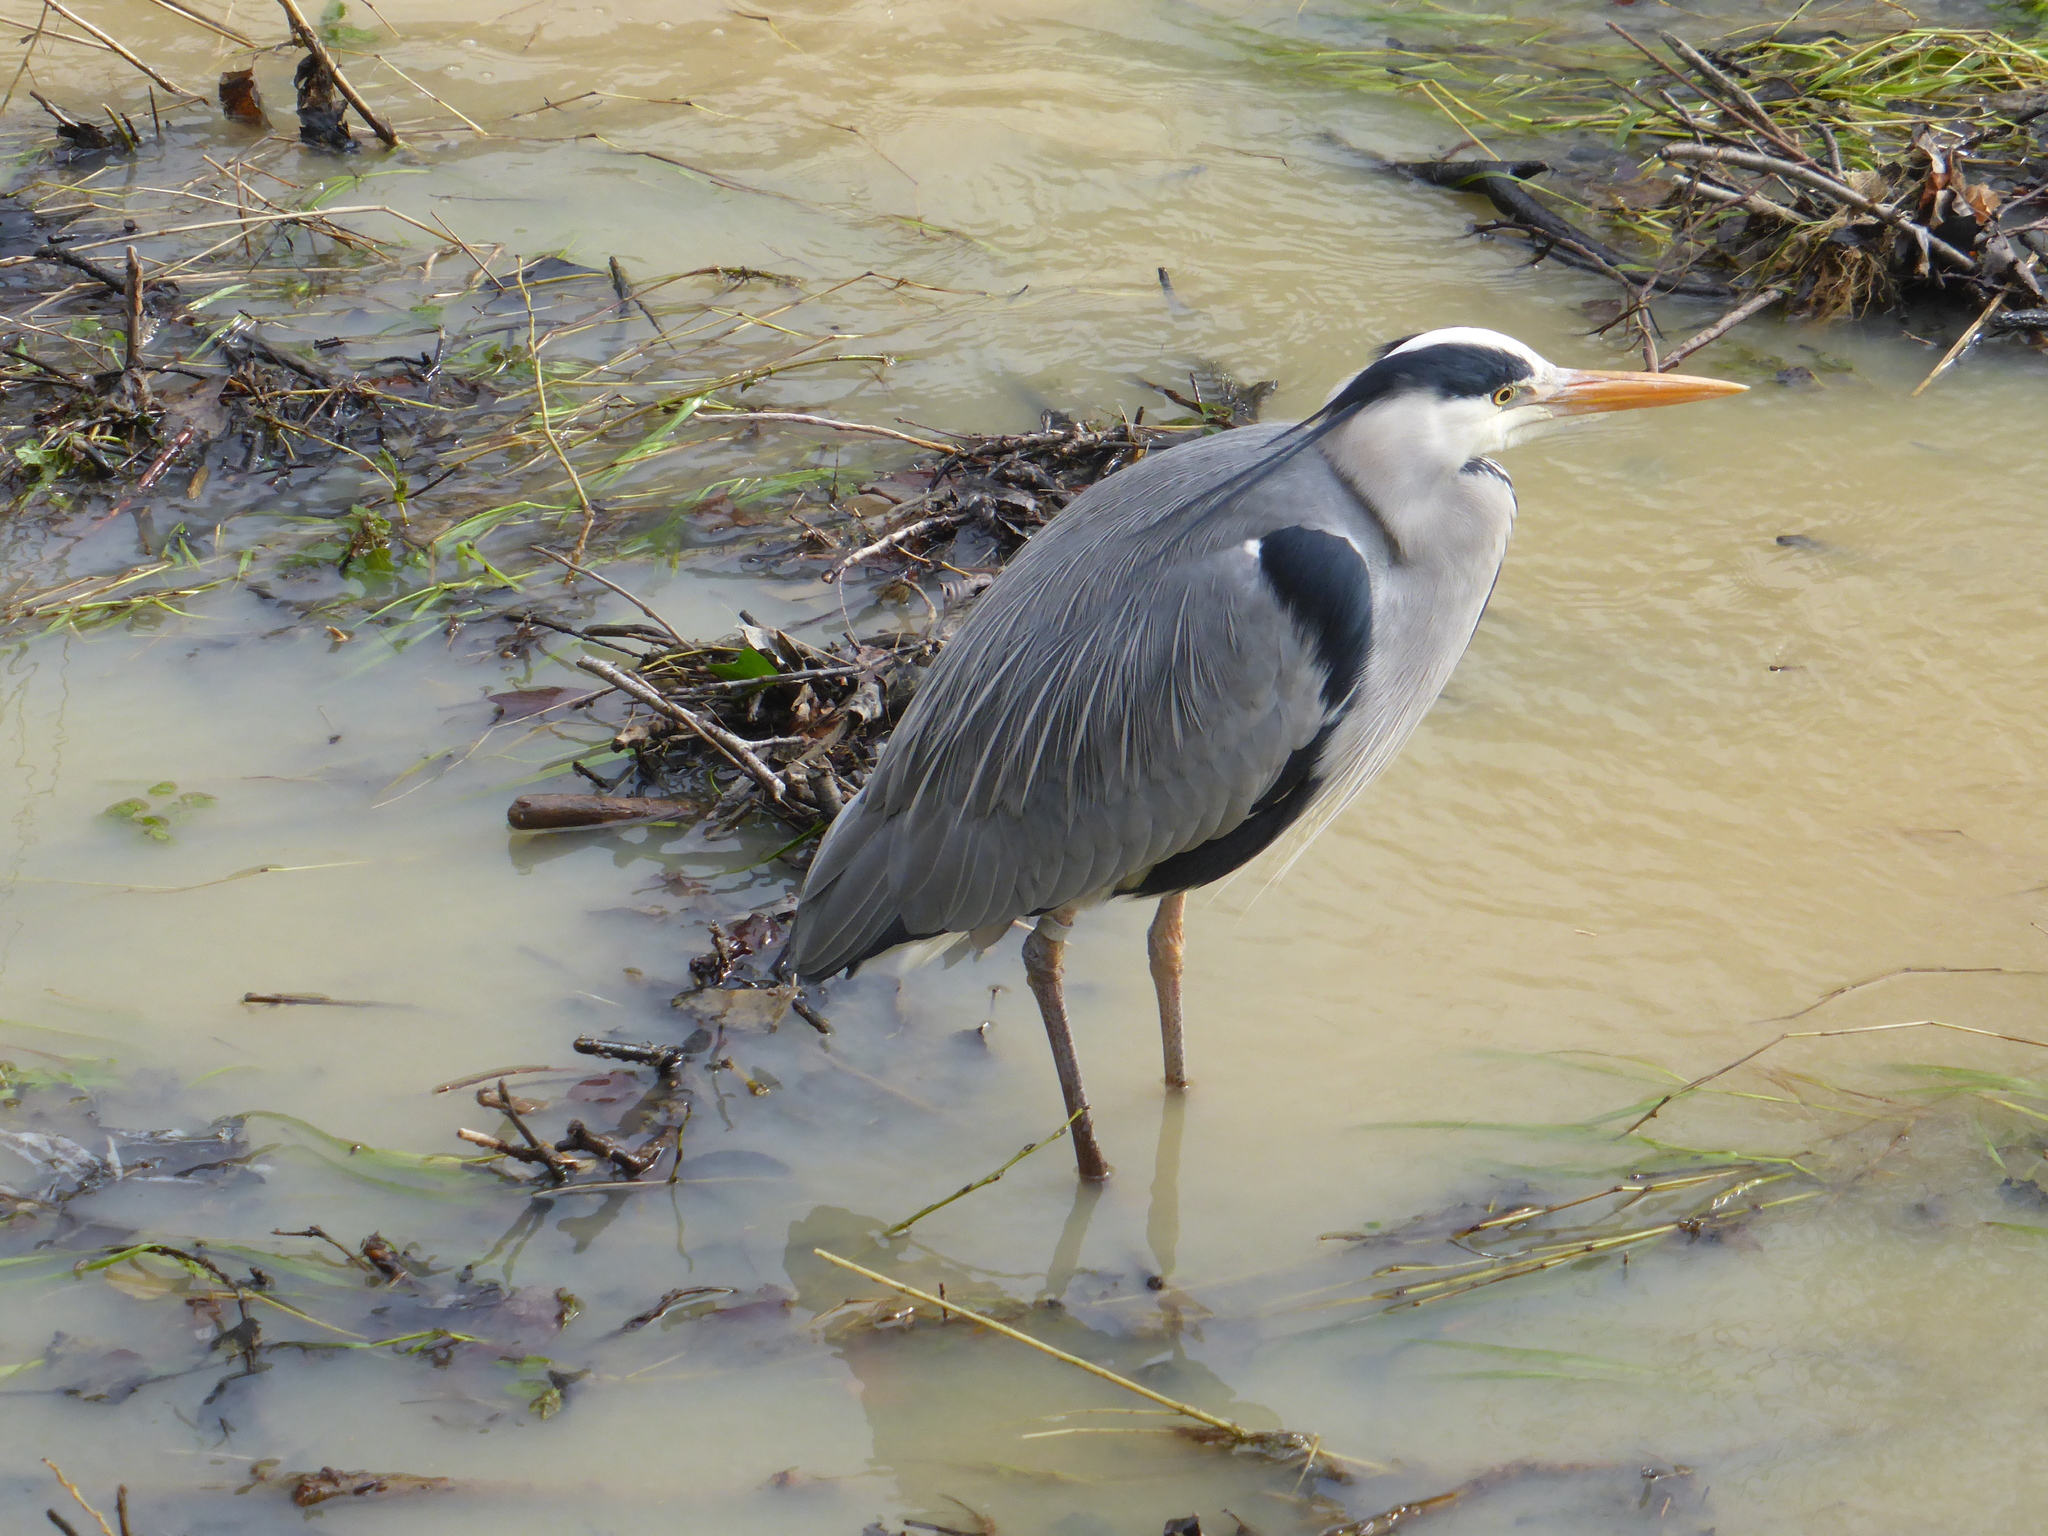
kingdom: Animalia
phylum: Chordata
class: Aves
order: Pelecaniformes
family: Ardeidae
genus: Ardea
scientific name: Ardea cinerea
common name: Grey heron
